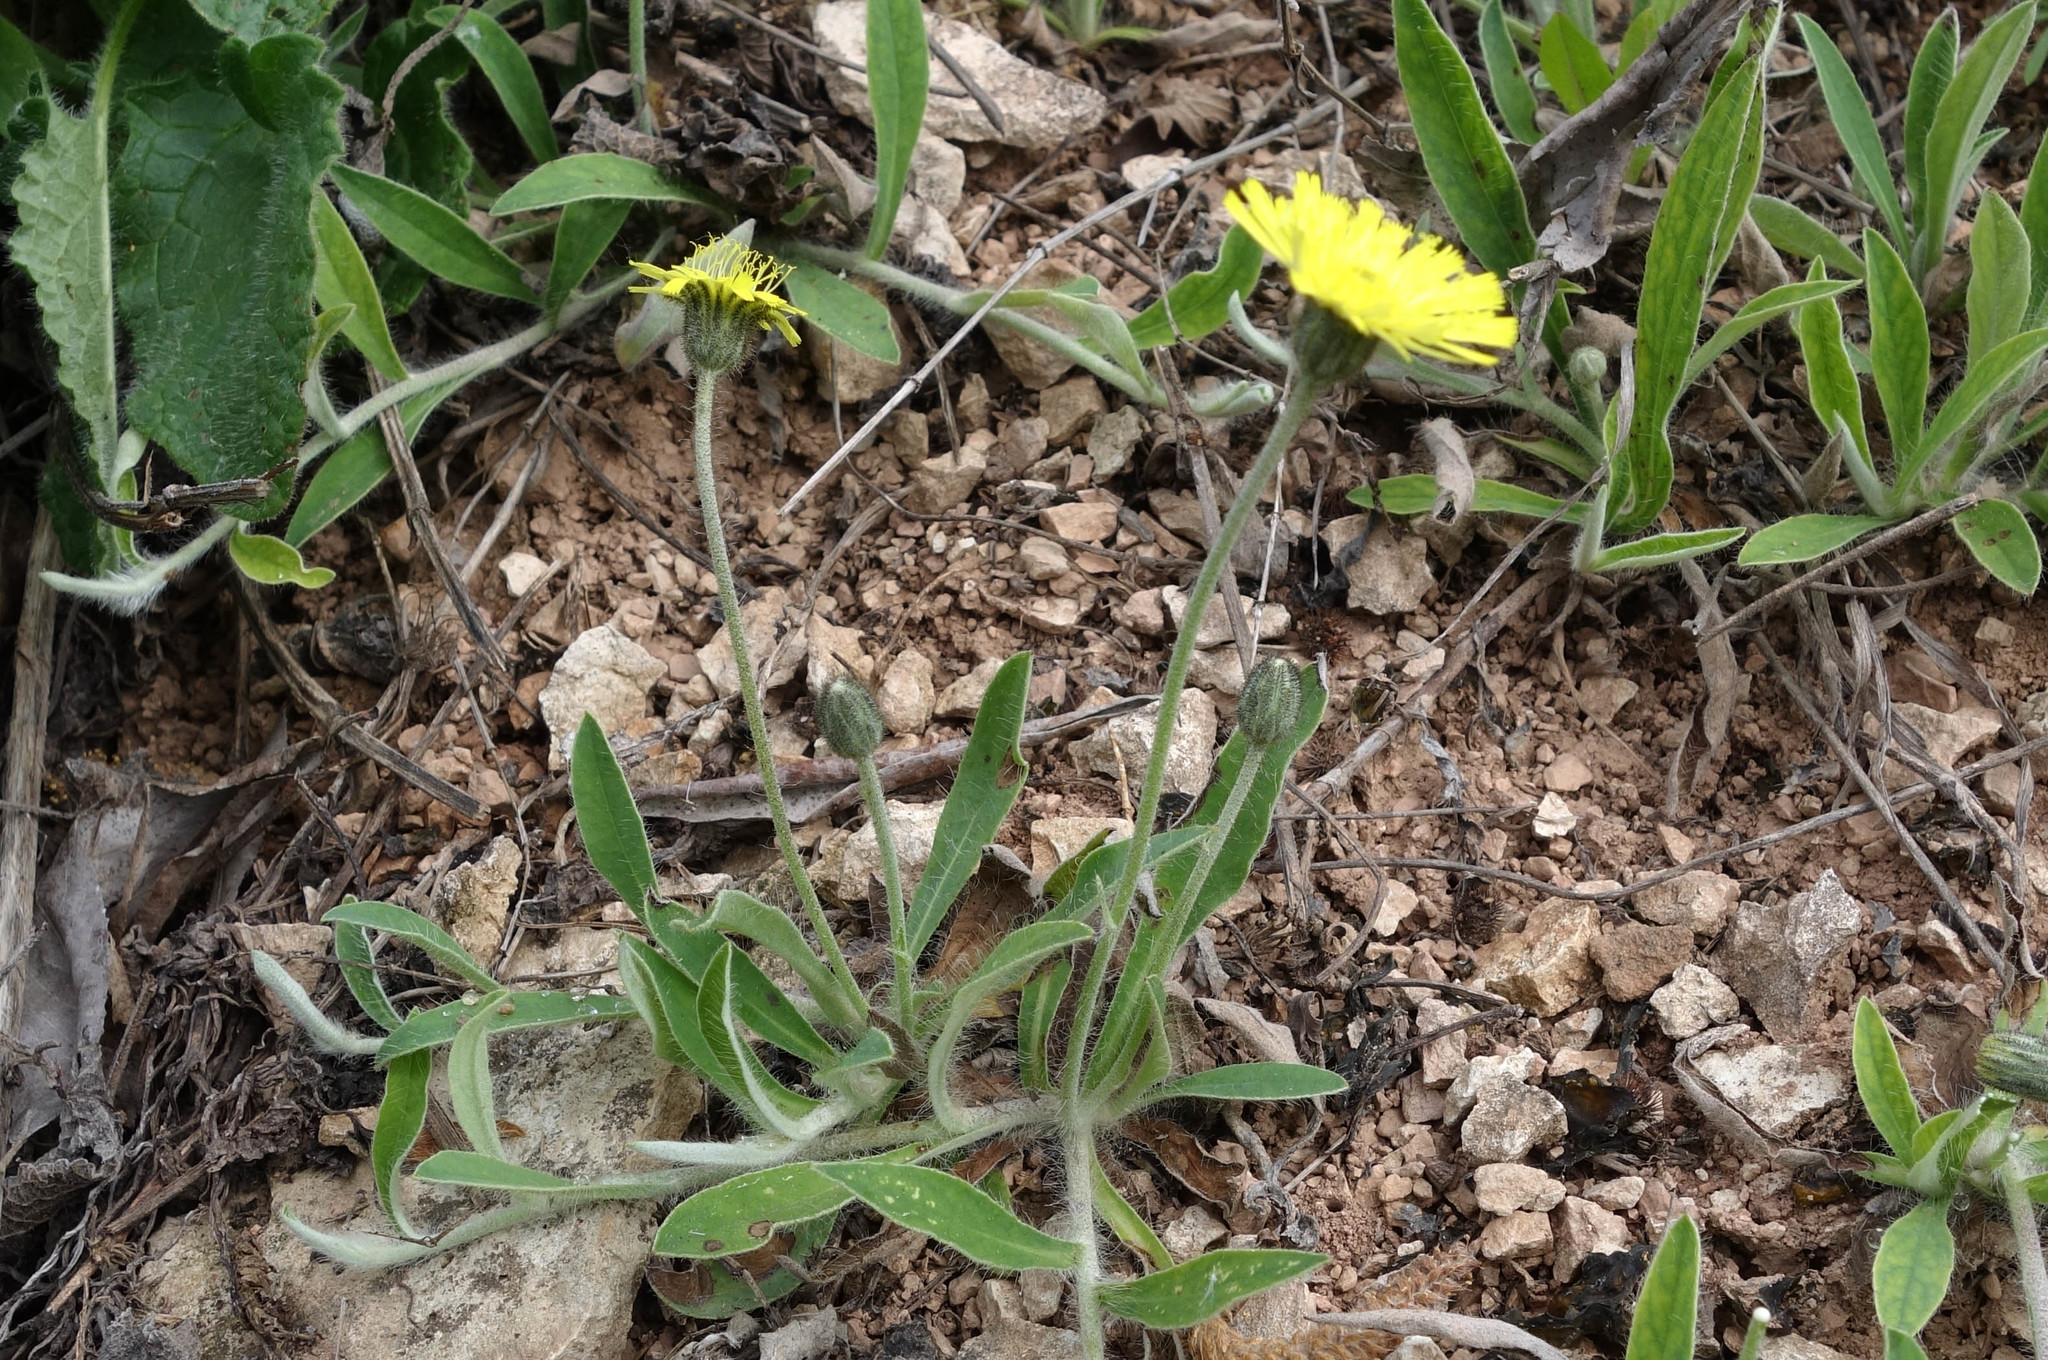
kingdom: Plantae
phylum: Tracheophyta
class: Magnoliopsida
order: Asterales
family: Asteraceae
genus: Pilosella
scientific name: Pilosella officinarum
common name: Mouse-ear hawkweed
